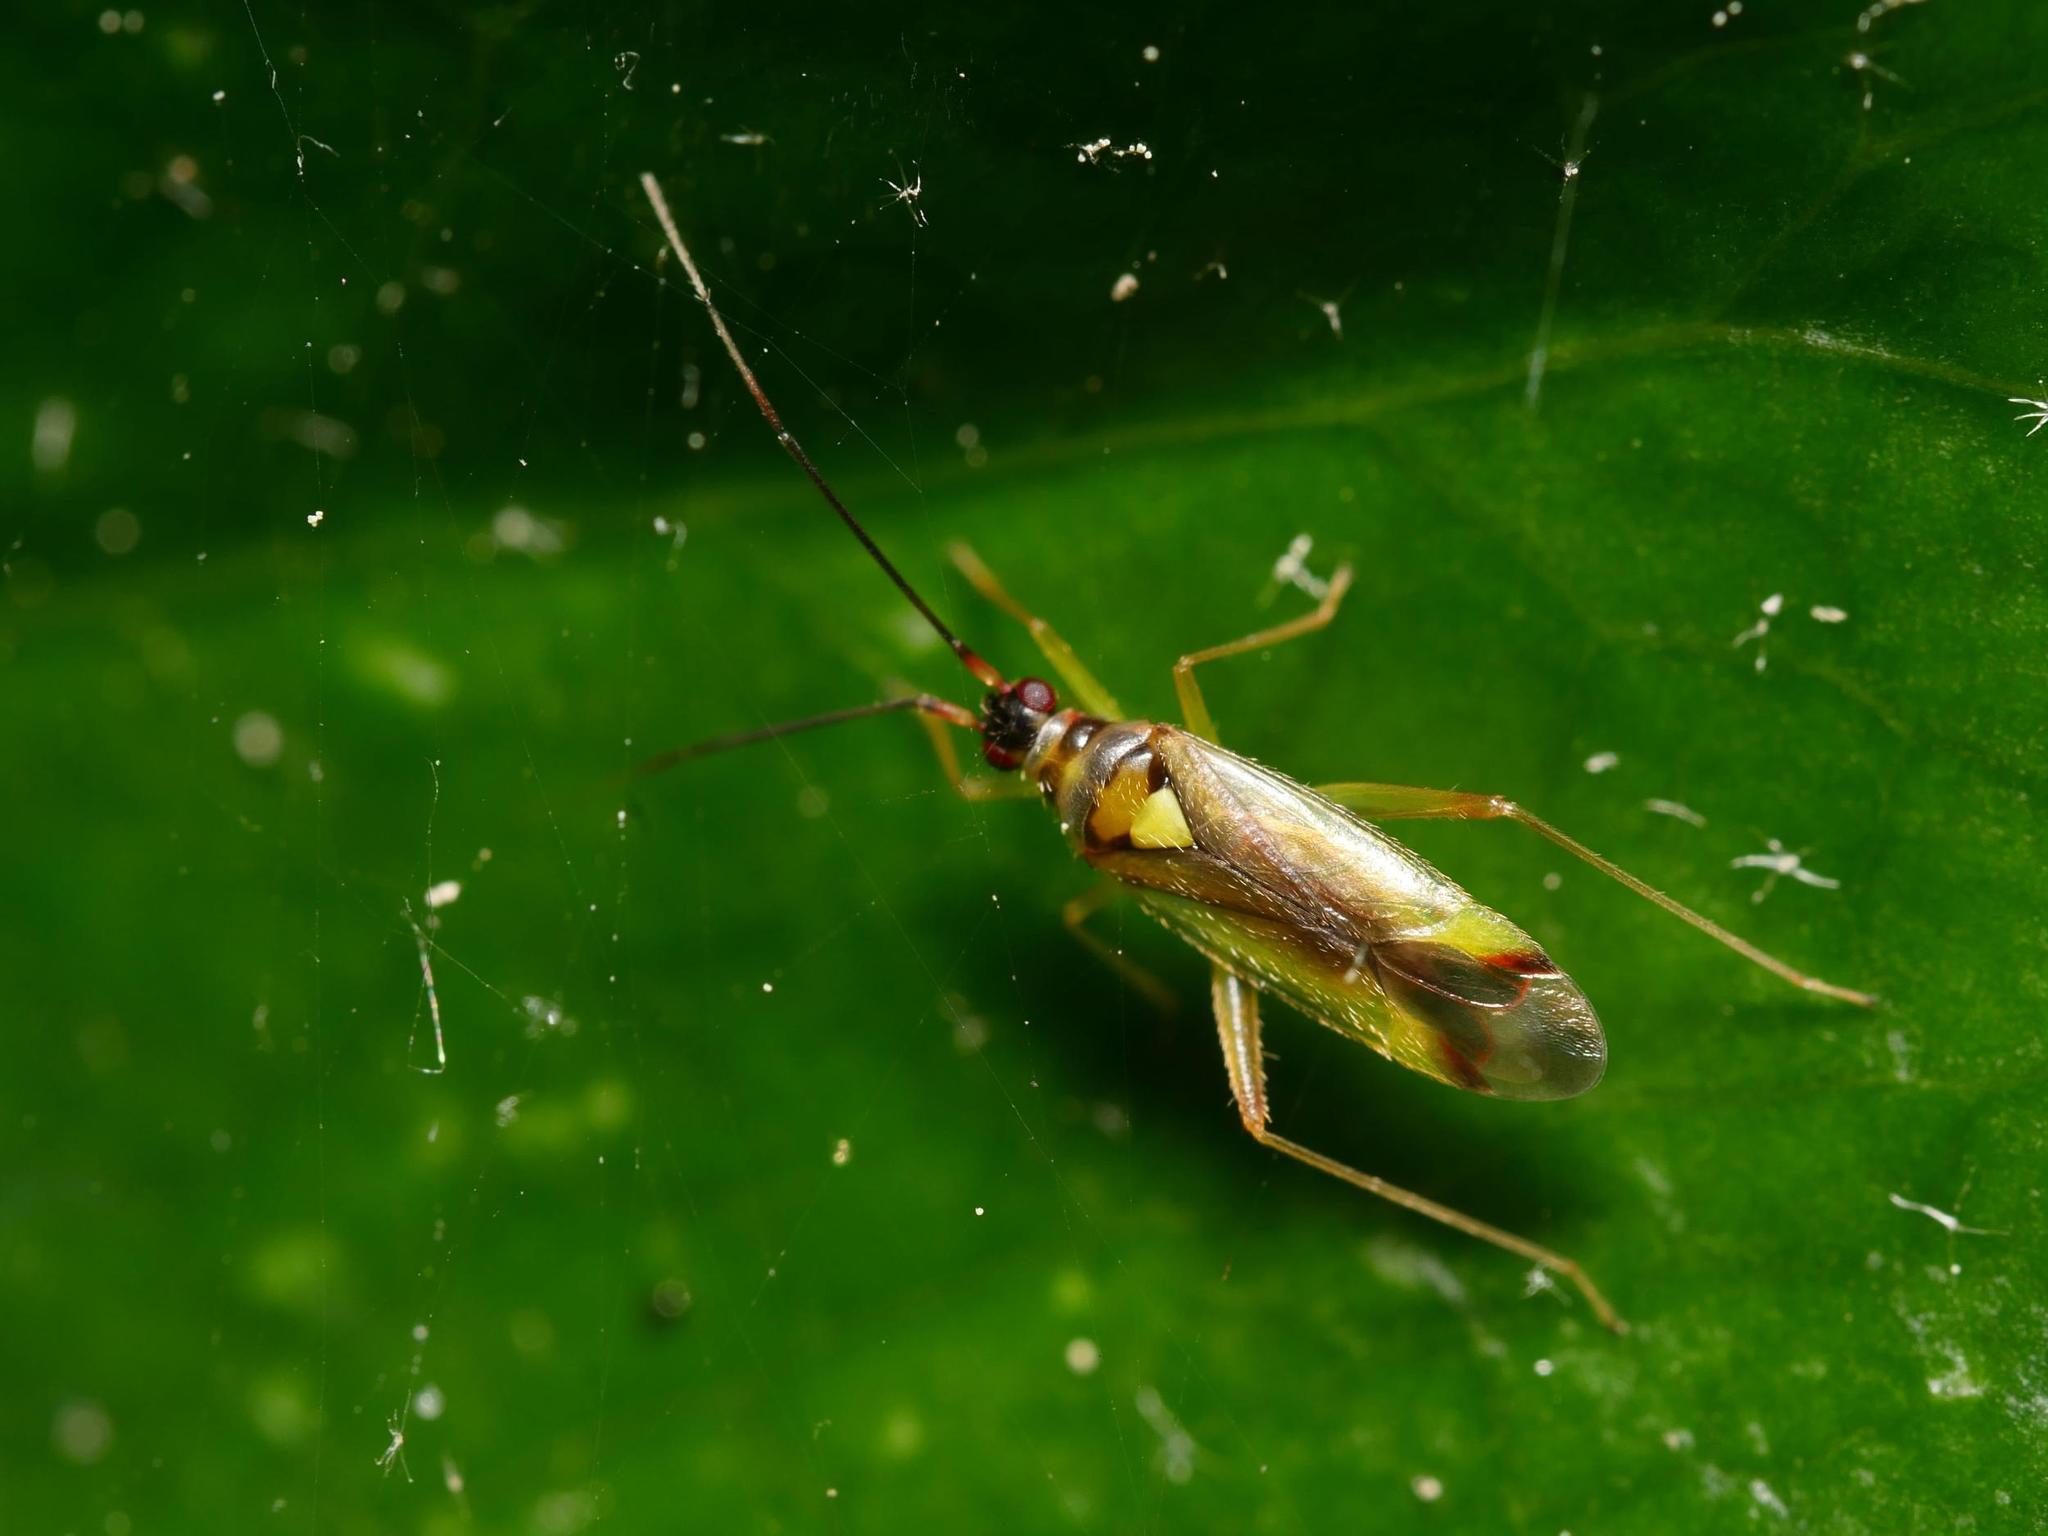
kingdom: Animalia
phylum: Arthropoda
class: Insecta
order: Hemiptera
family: Miridae
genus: Campyloneura
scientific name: Campyloneura virgula
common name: Predatory bug
